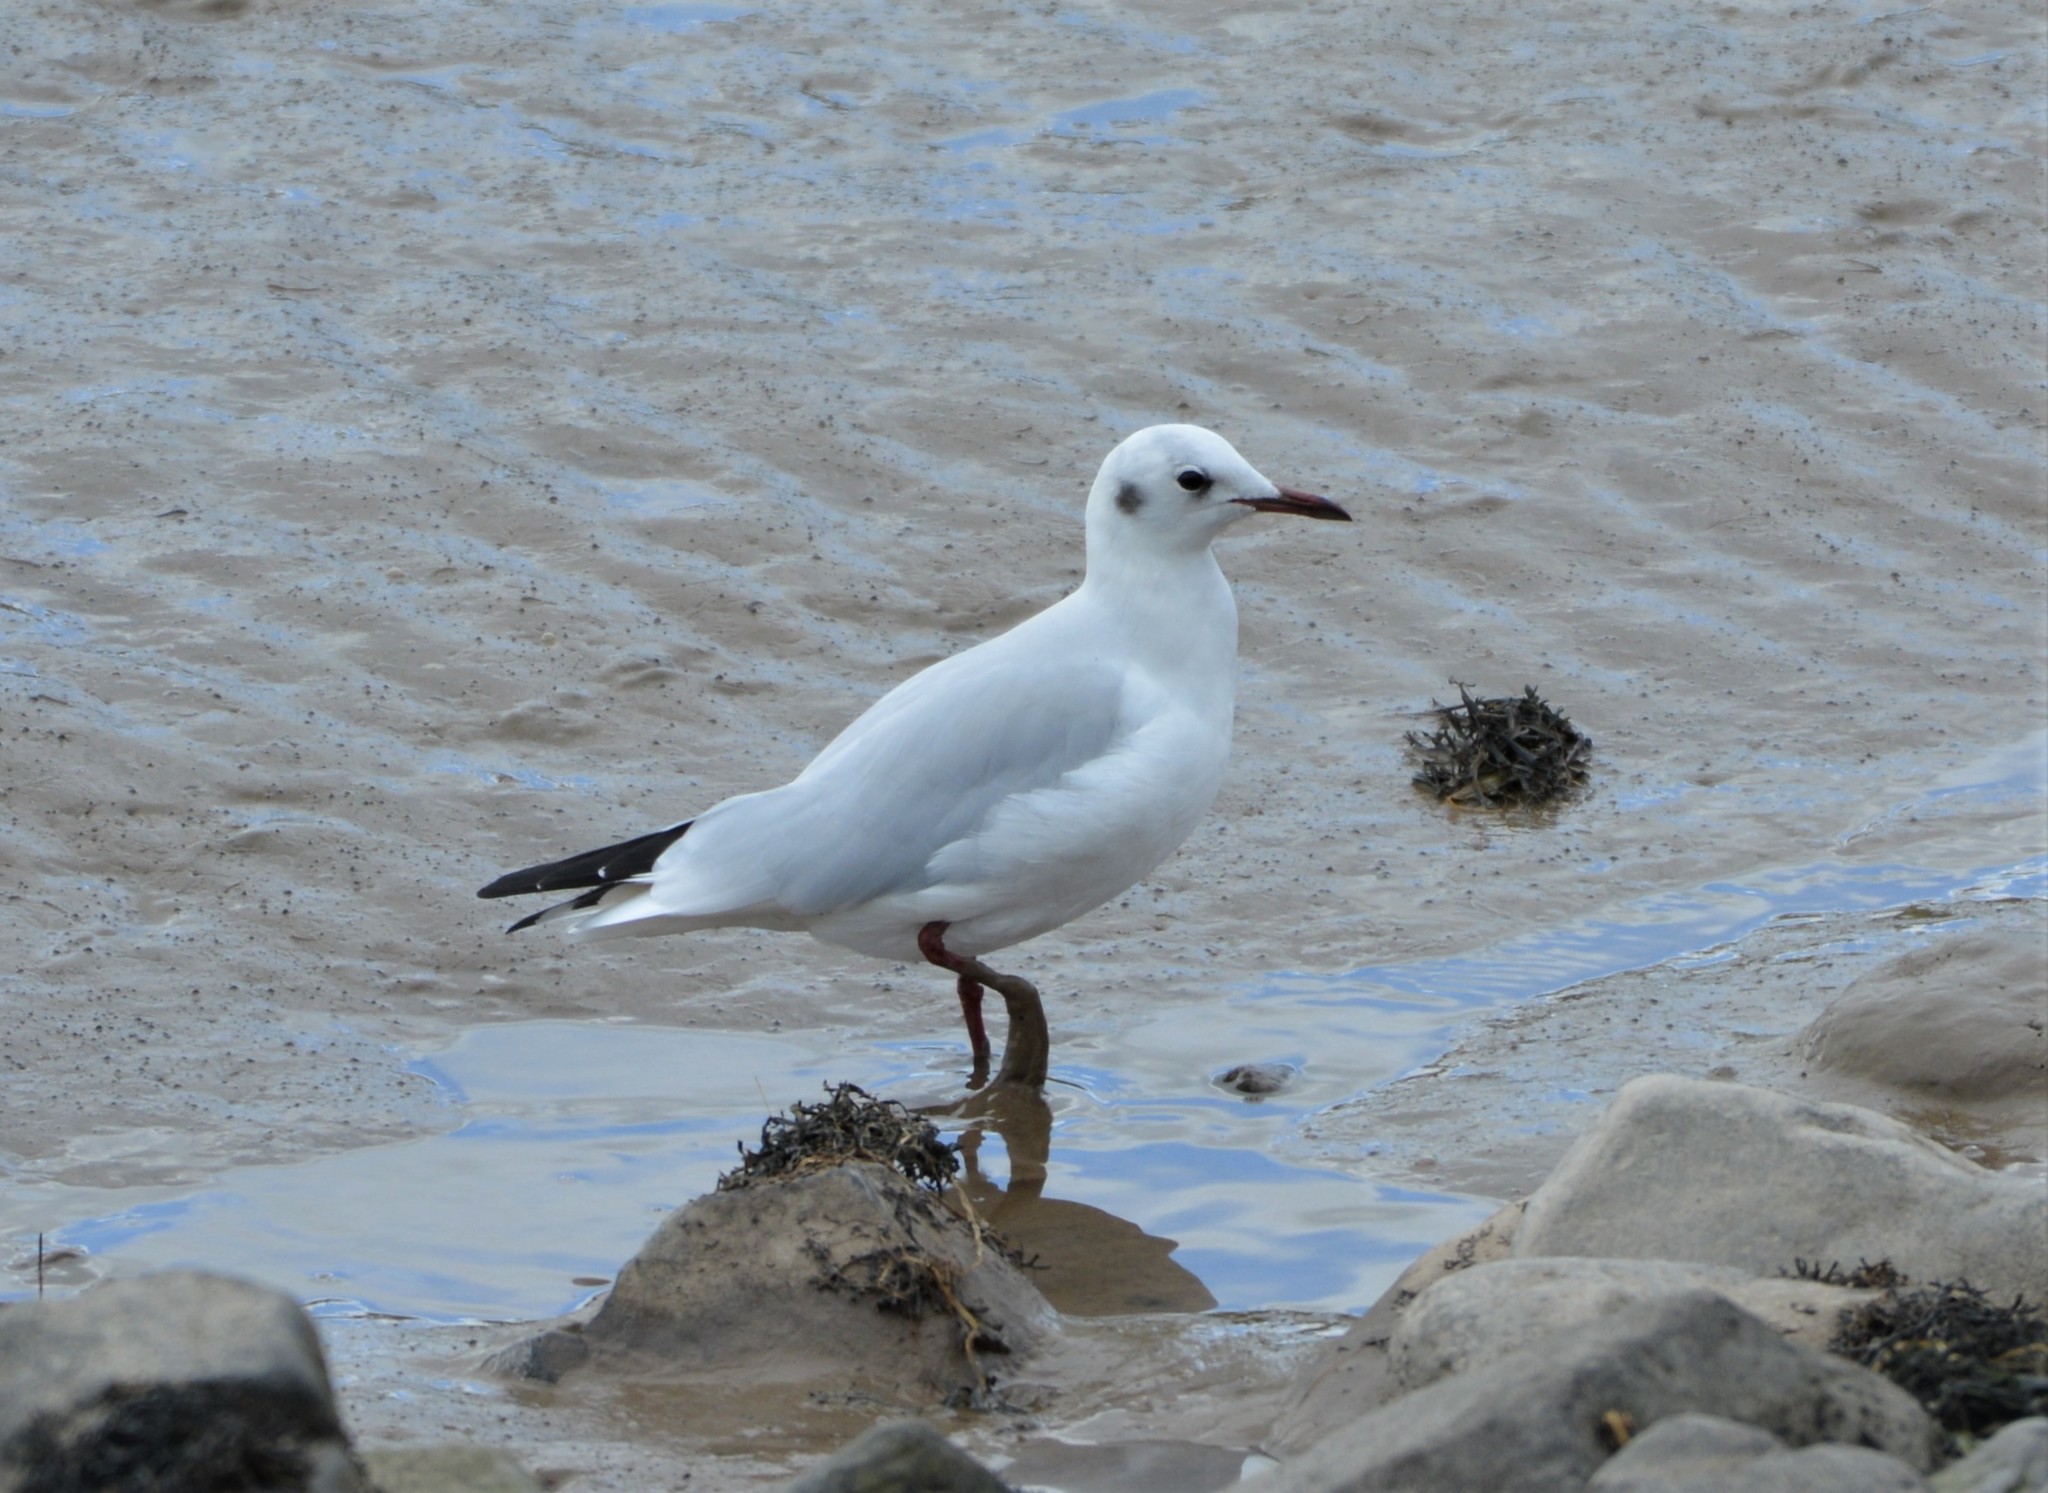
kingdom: Animalia
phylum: Chordata
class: Aves
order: Charadriiformes
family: Laridae
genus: Chroicocephalus
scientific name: Chroicocephalus ridibundus
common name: Black-headed gull
